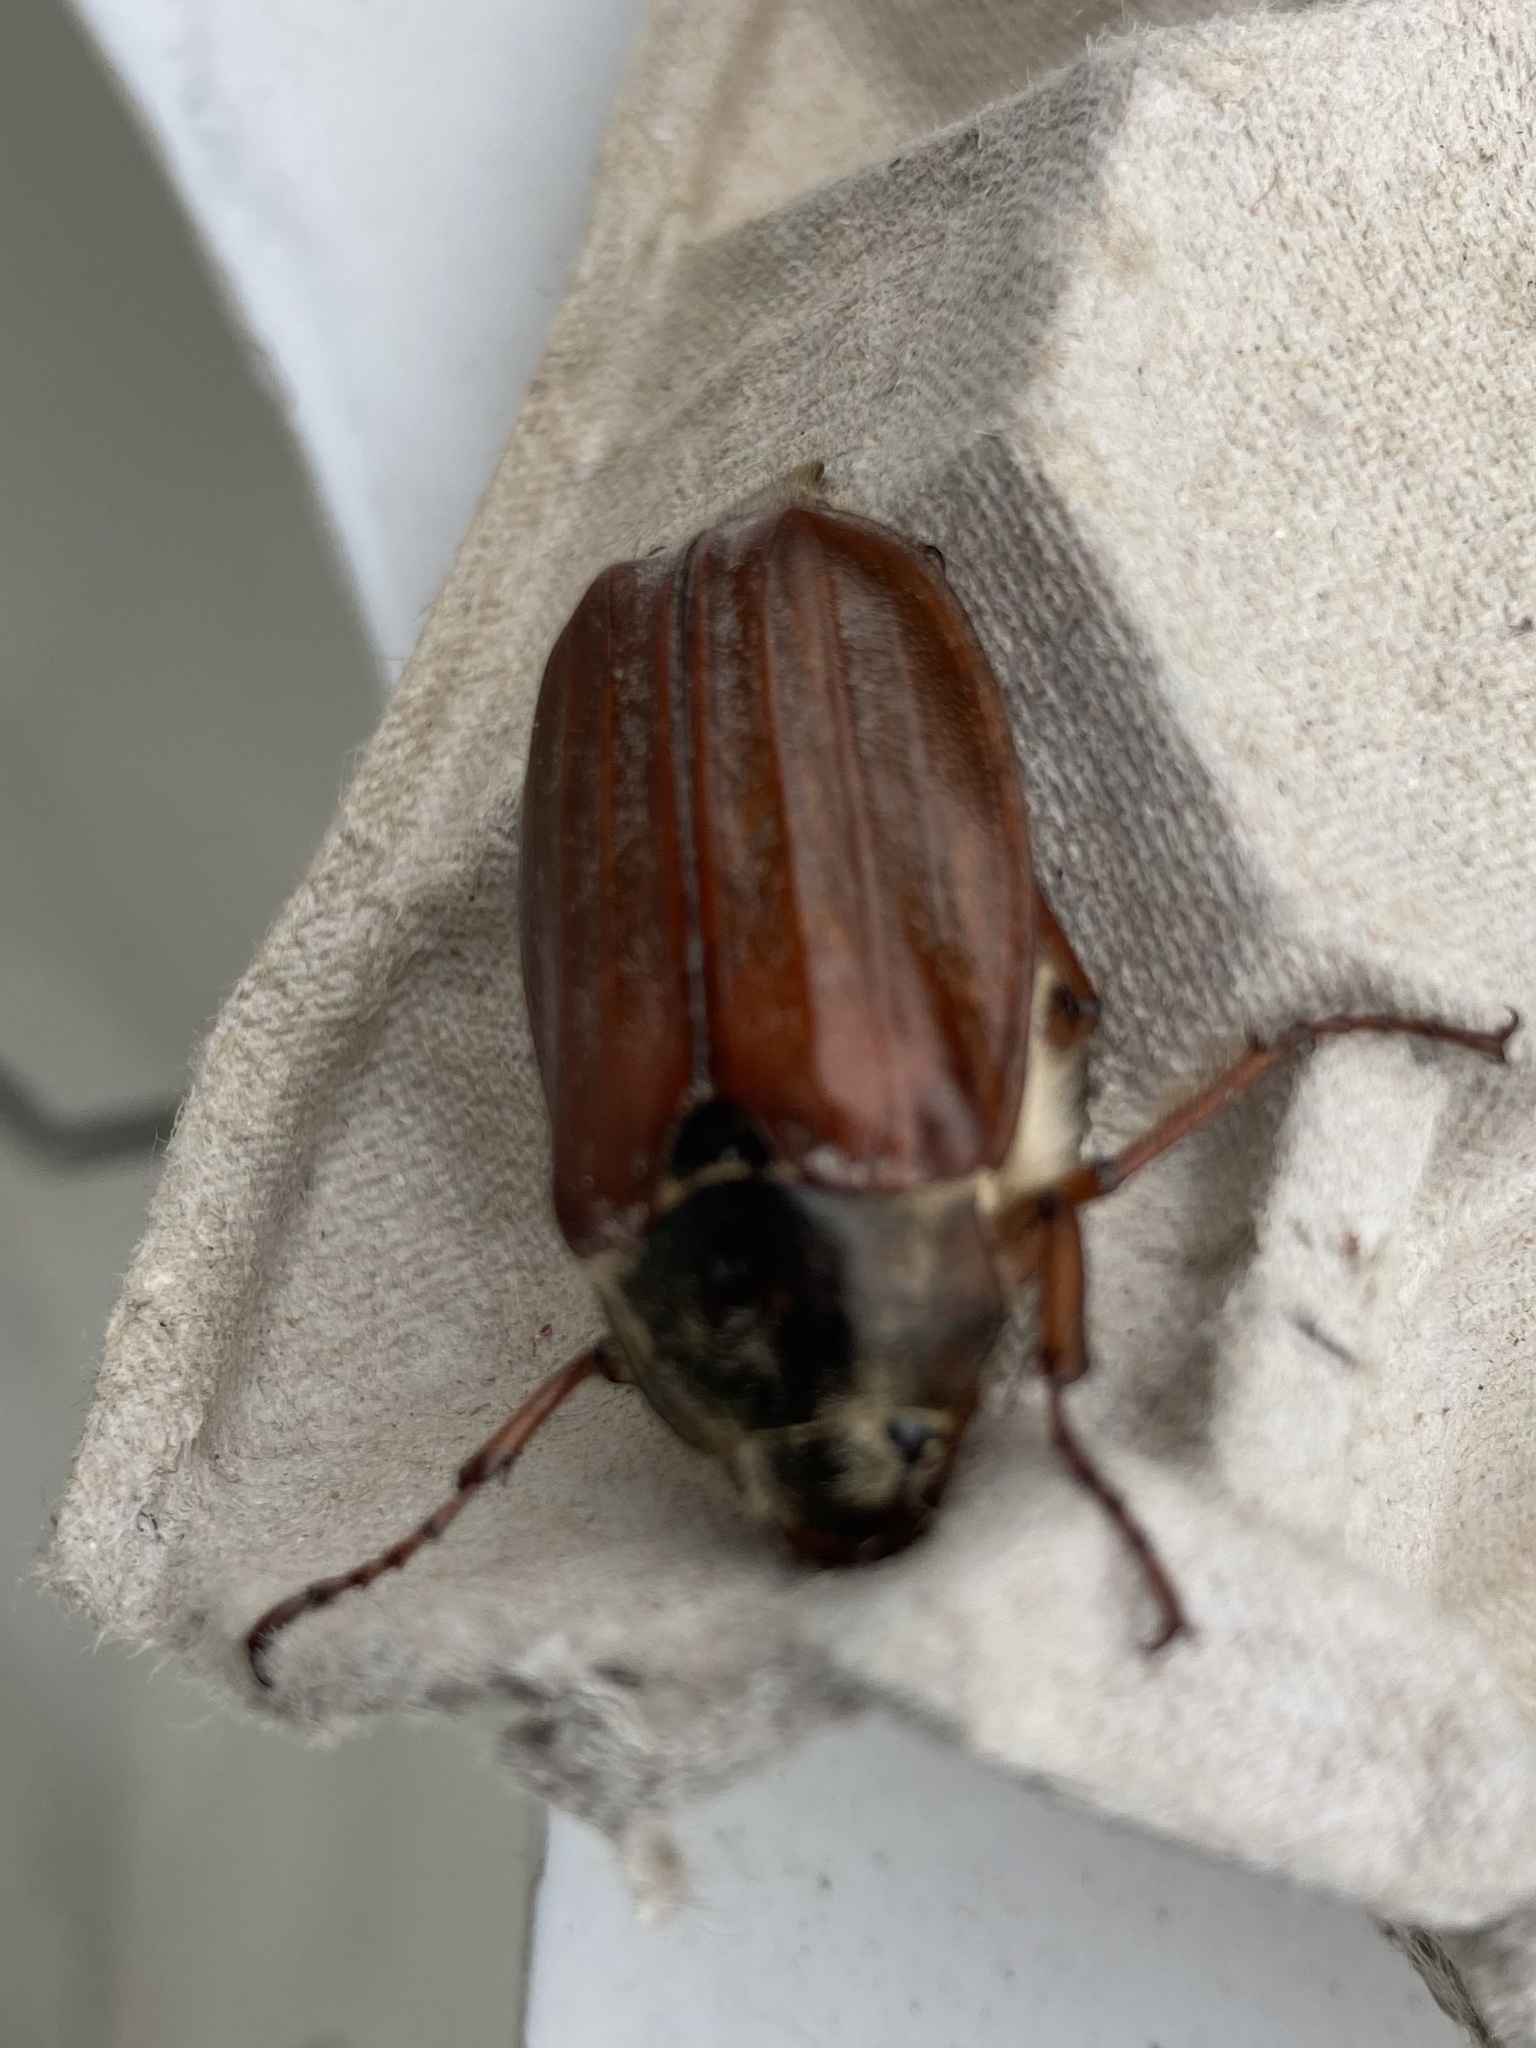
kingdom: Animalia
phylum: Arthropoda
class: Insecta
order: Coleoptera
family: Scarabaeidae
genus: Melolontha
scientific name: Melolontha melolontha
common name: Cockchafer maybeetle
